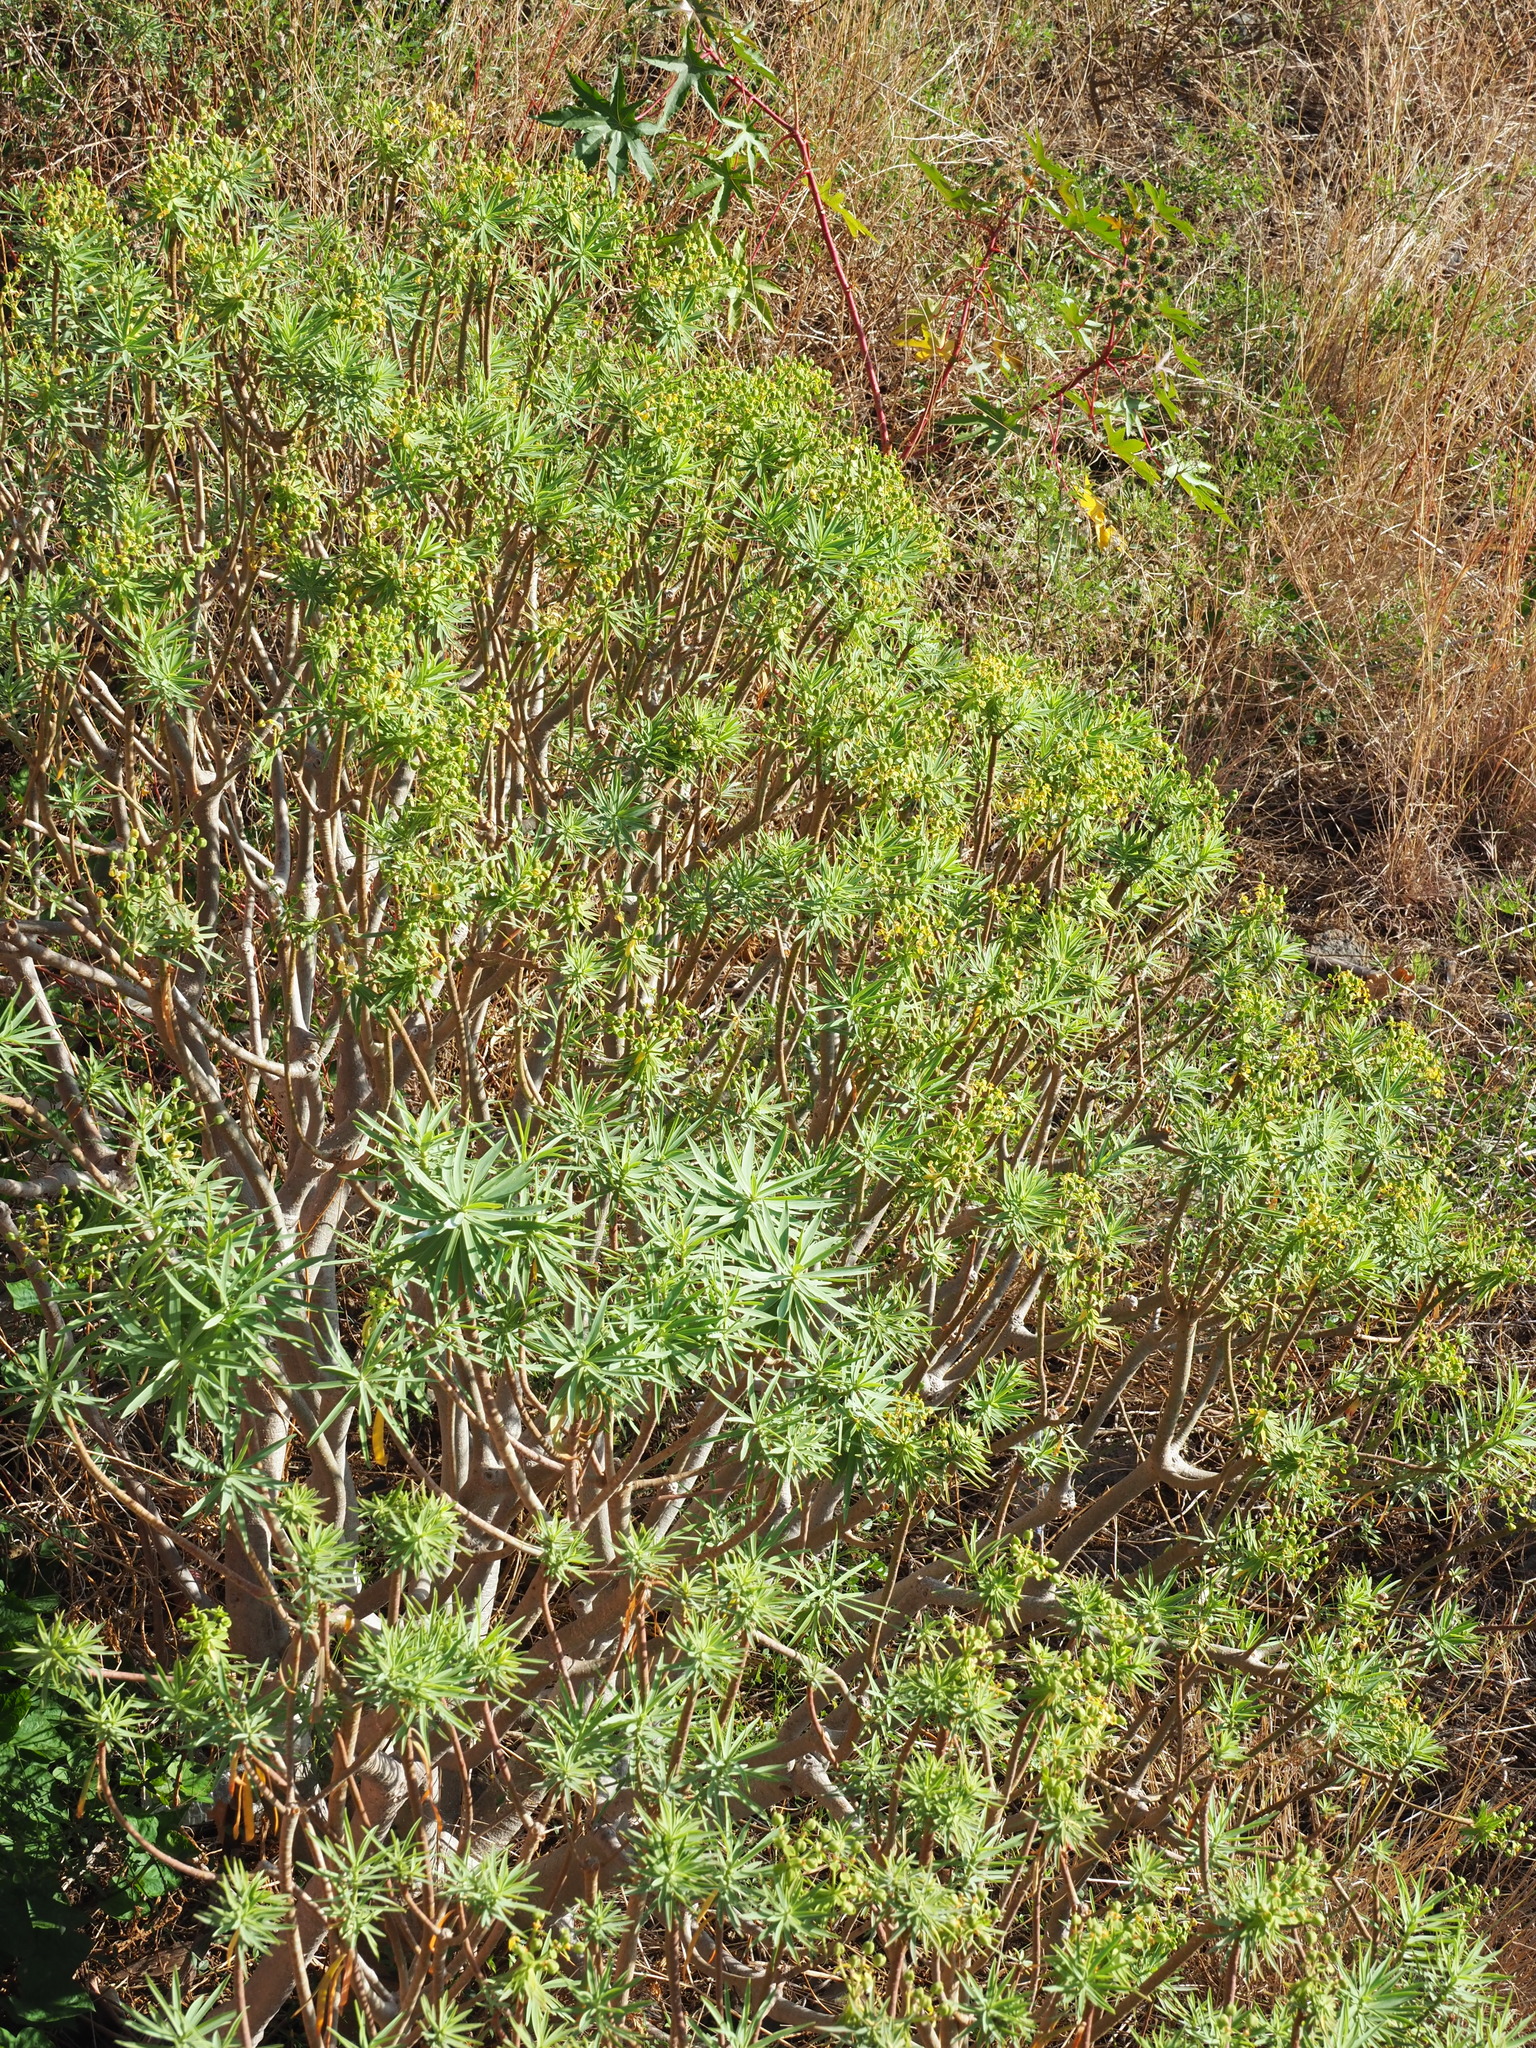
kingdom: Plantae
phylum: Tracheophyta
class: Magnoliopsida
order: Malpighiales
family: Euphorbiaceae
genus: Euphorbia
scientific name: Euphorbia piscatoria
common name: Fish-stunning spurge
